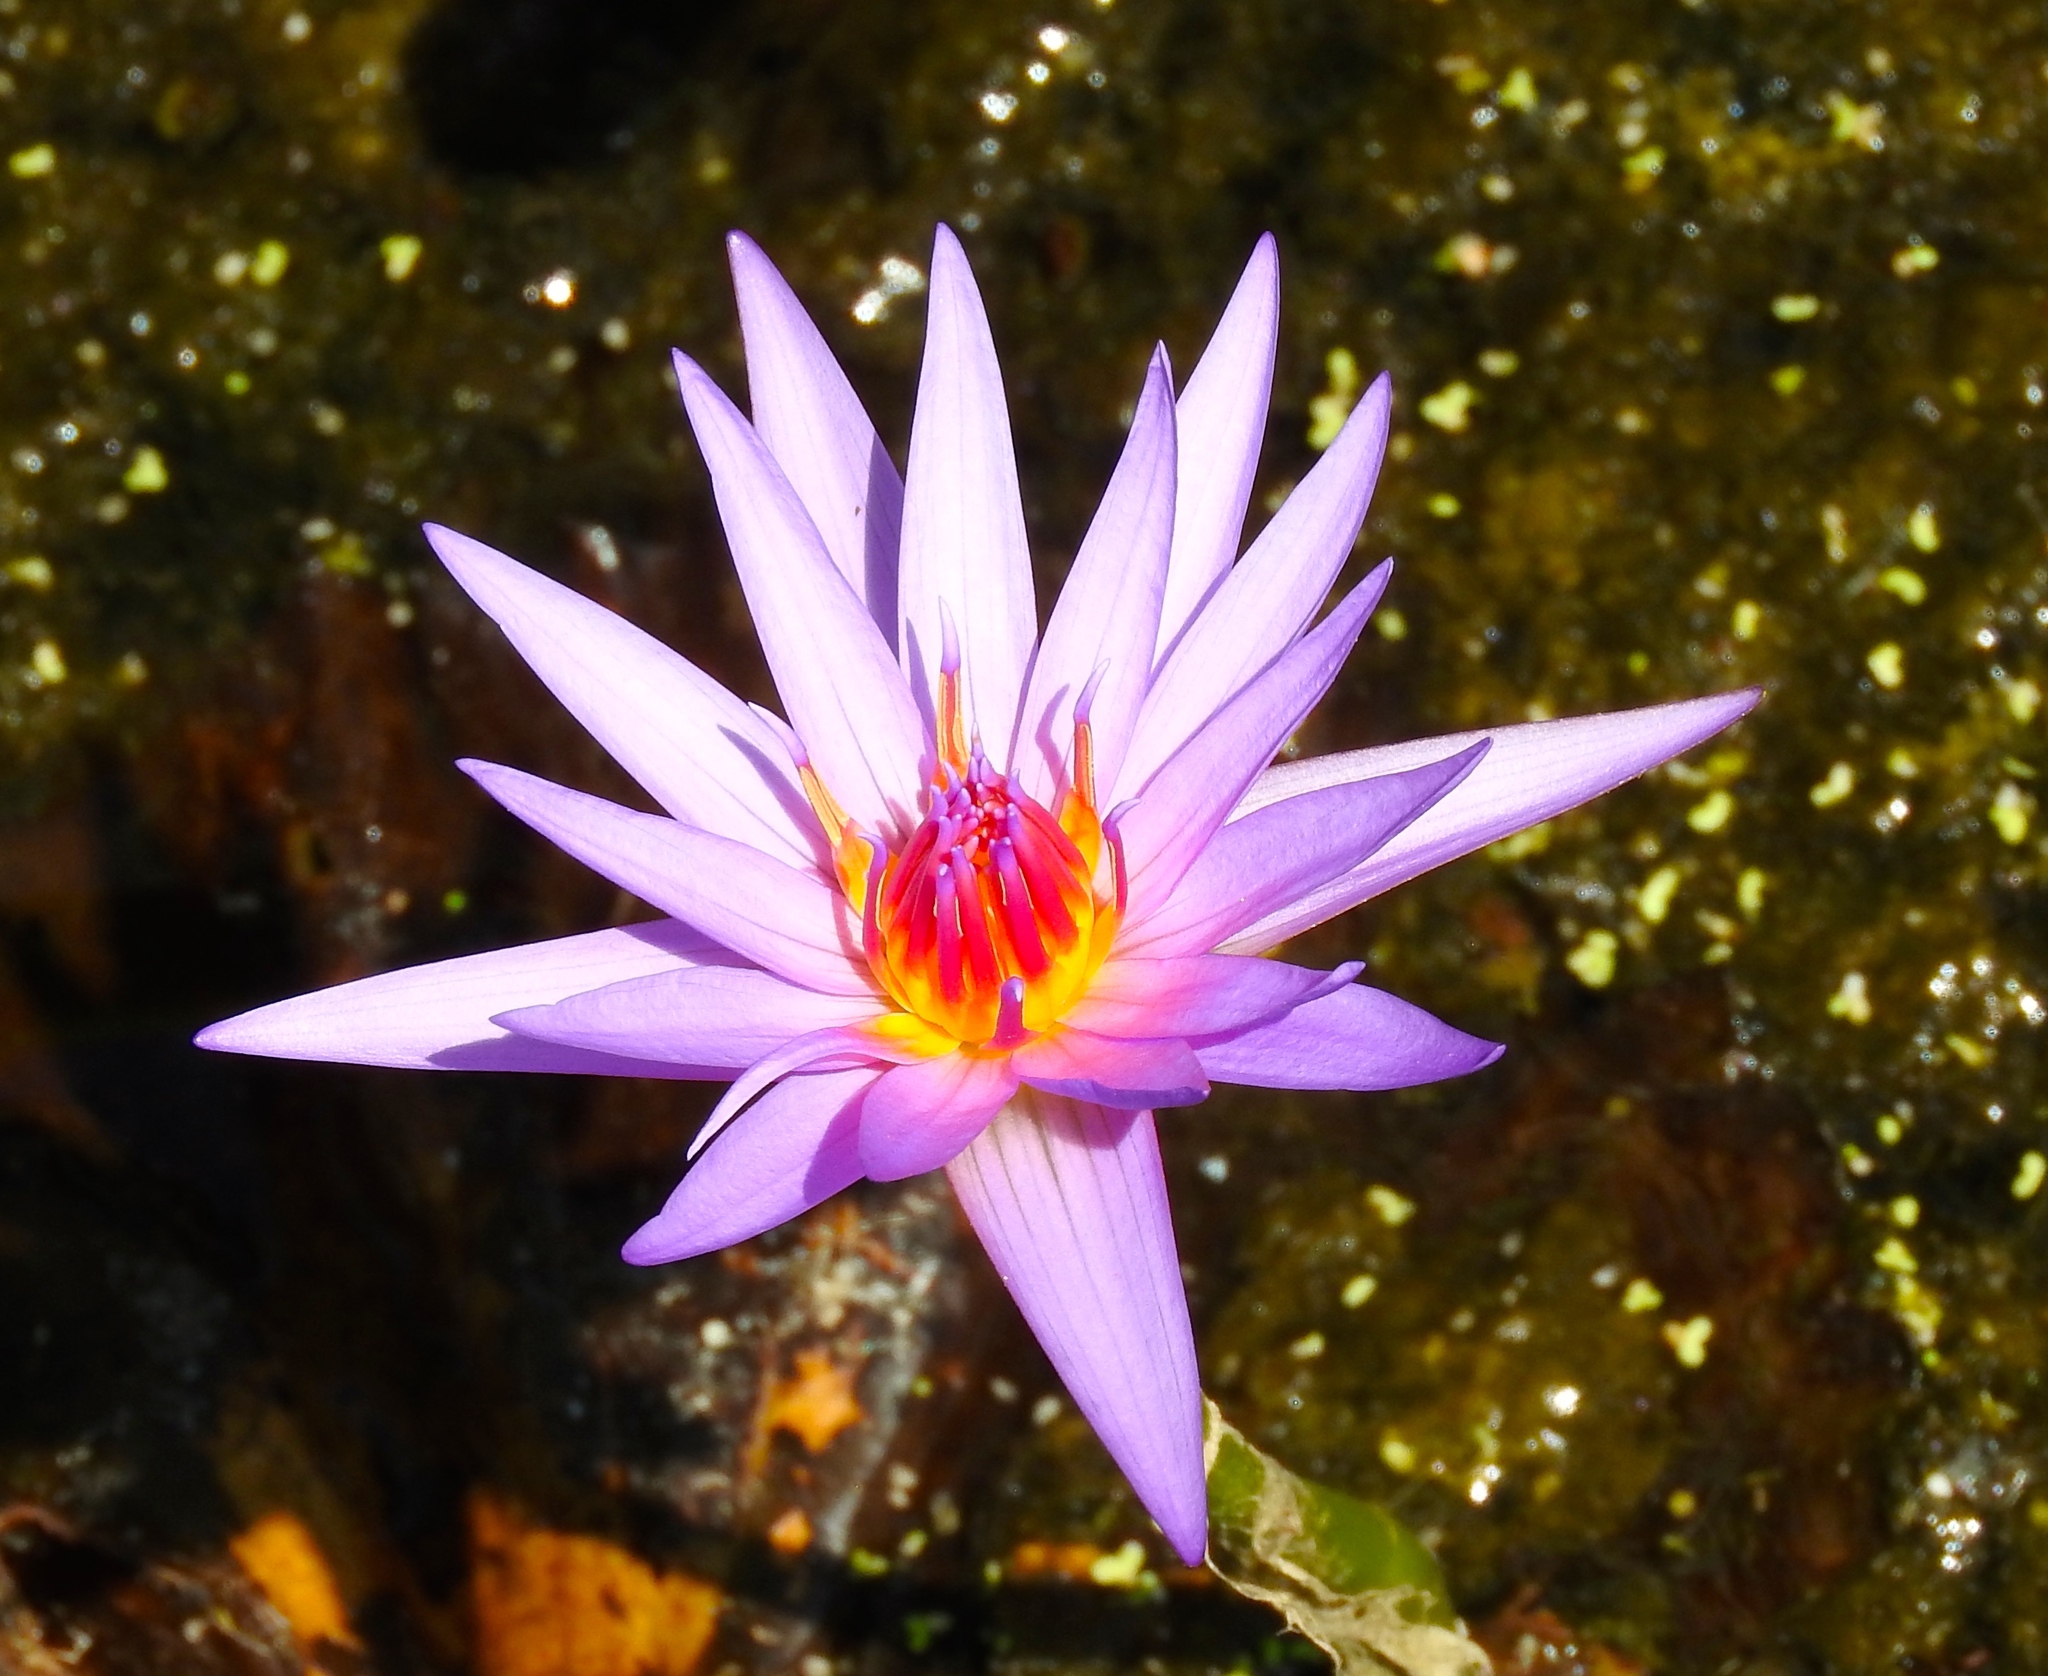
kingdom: Plantae
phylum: Tracheophyta
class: Magnoliopsida
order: Nymphaeales
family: Nymphaeaceae
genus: Nymphaea
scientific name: Nymphaea elegans
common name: Blue water-lily
